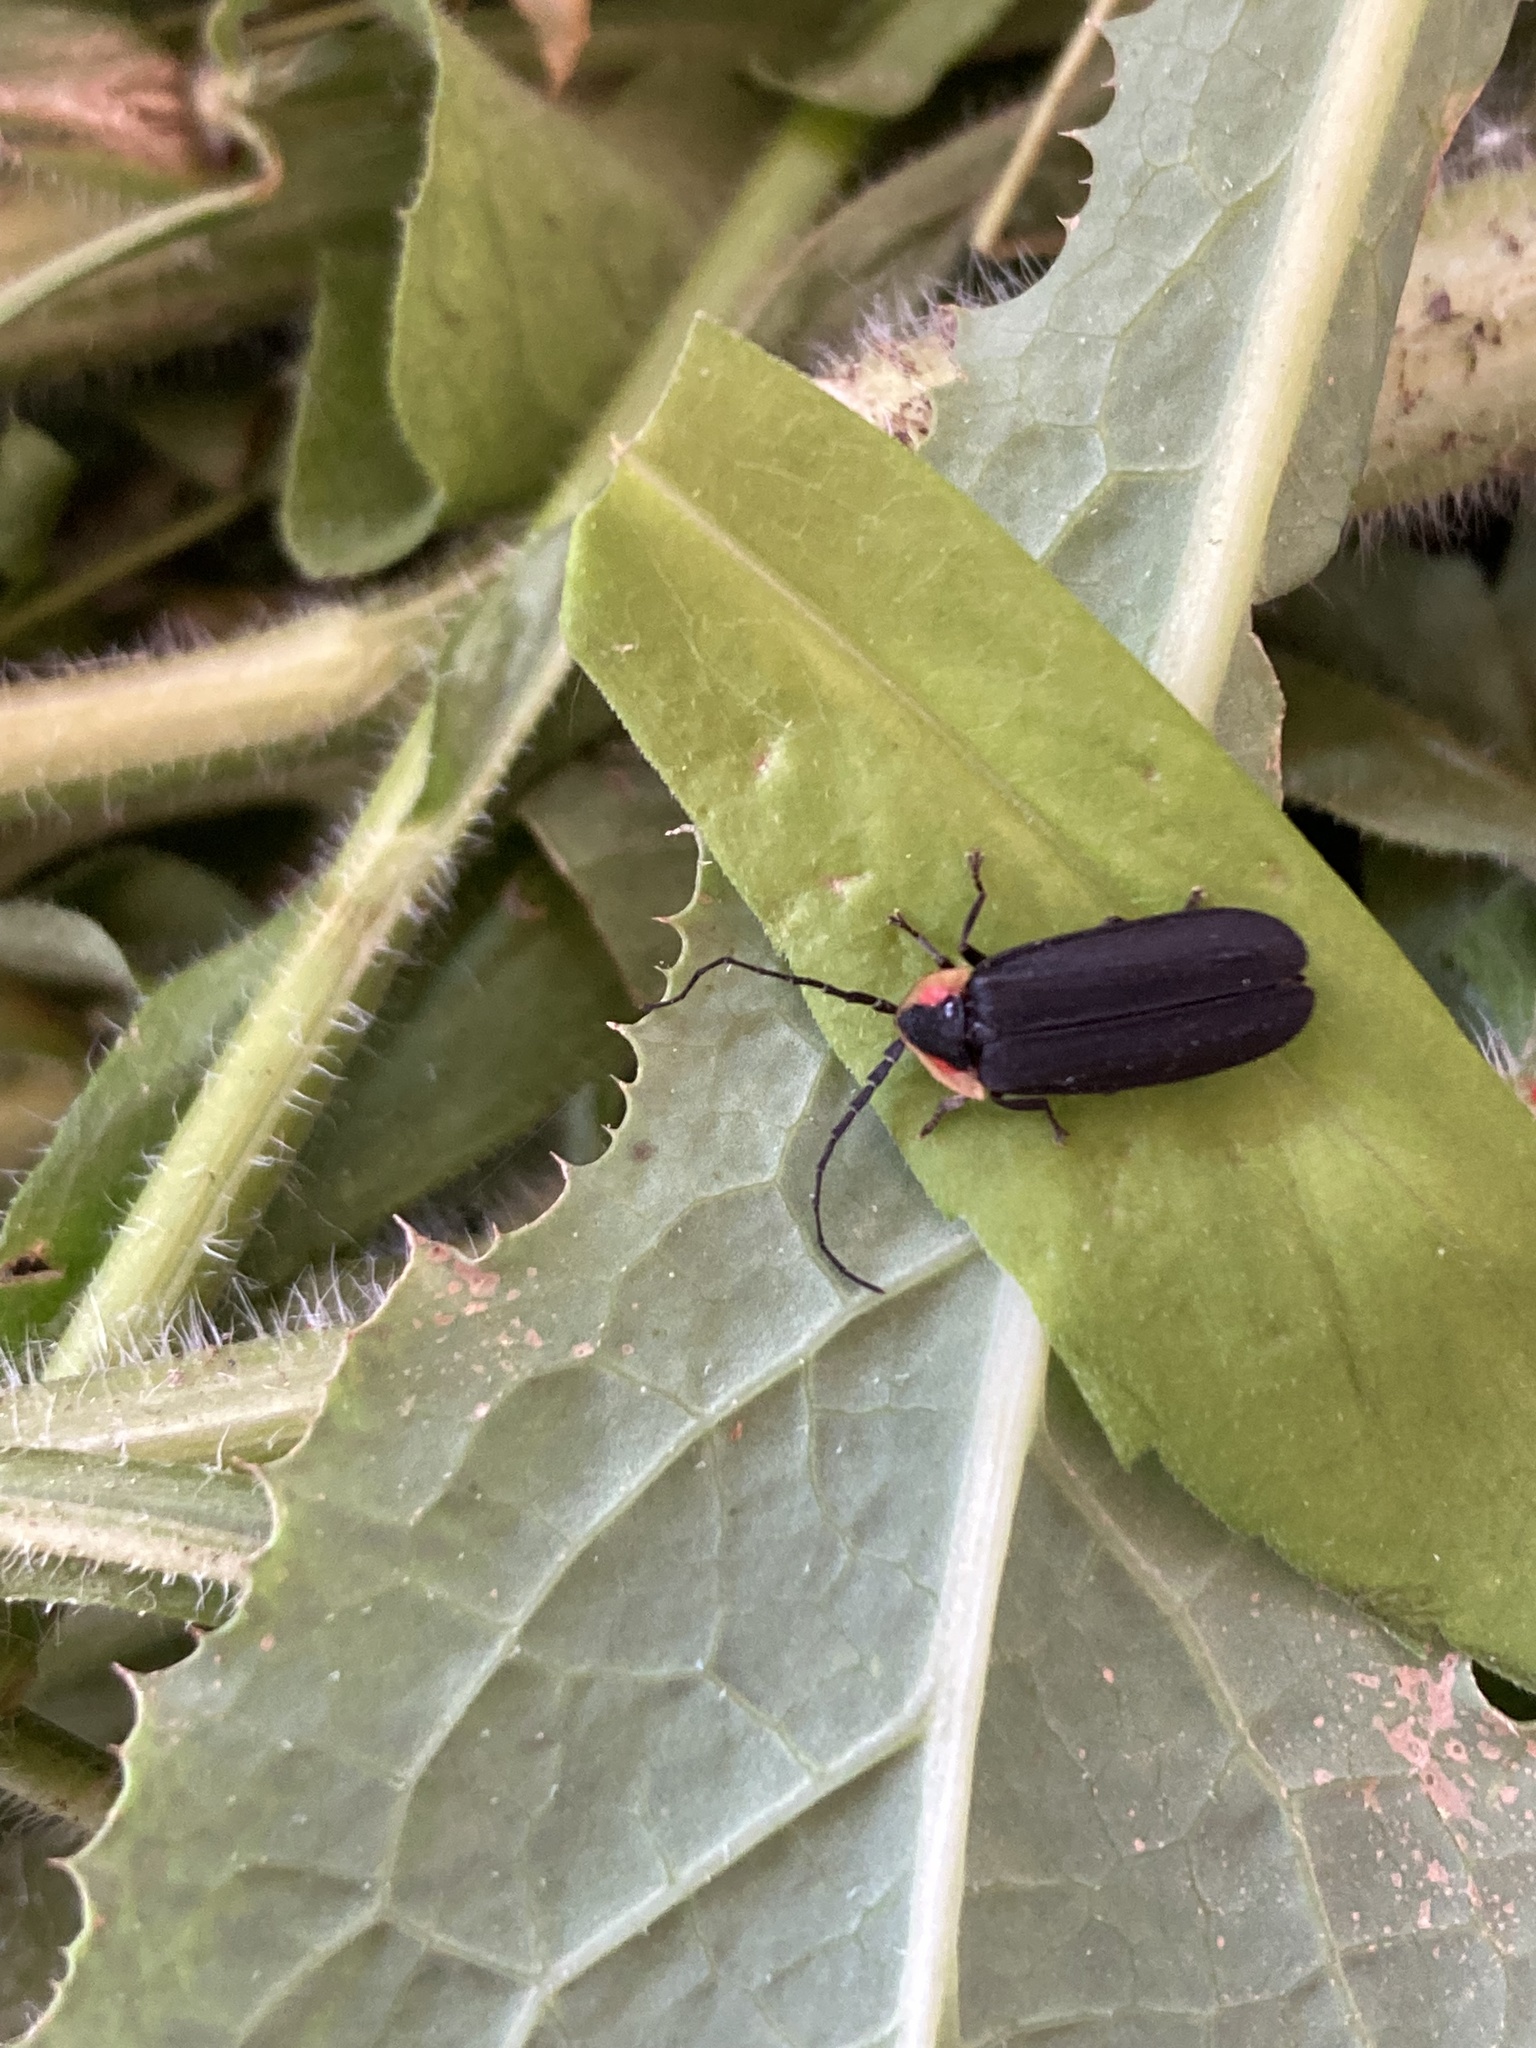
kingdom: Animalia
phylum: Arthropoda
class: Insecta
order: Coleoptera
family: Lampyridae
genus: Lucidota
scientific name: Lucidota atra
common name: Black firefly
